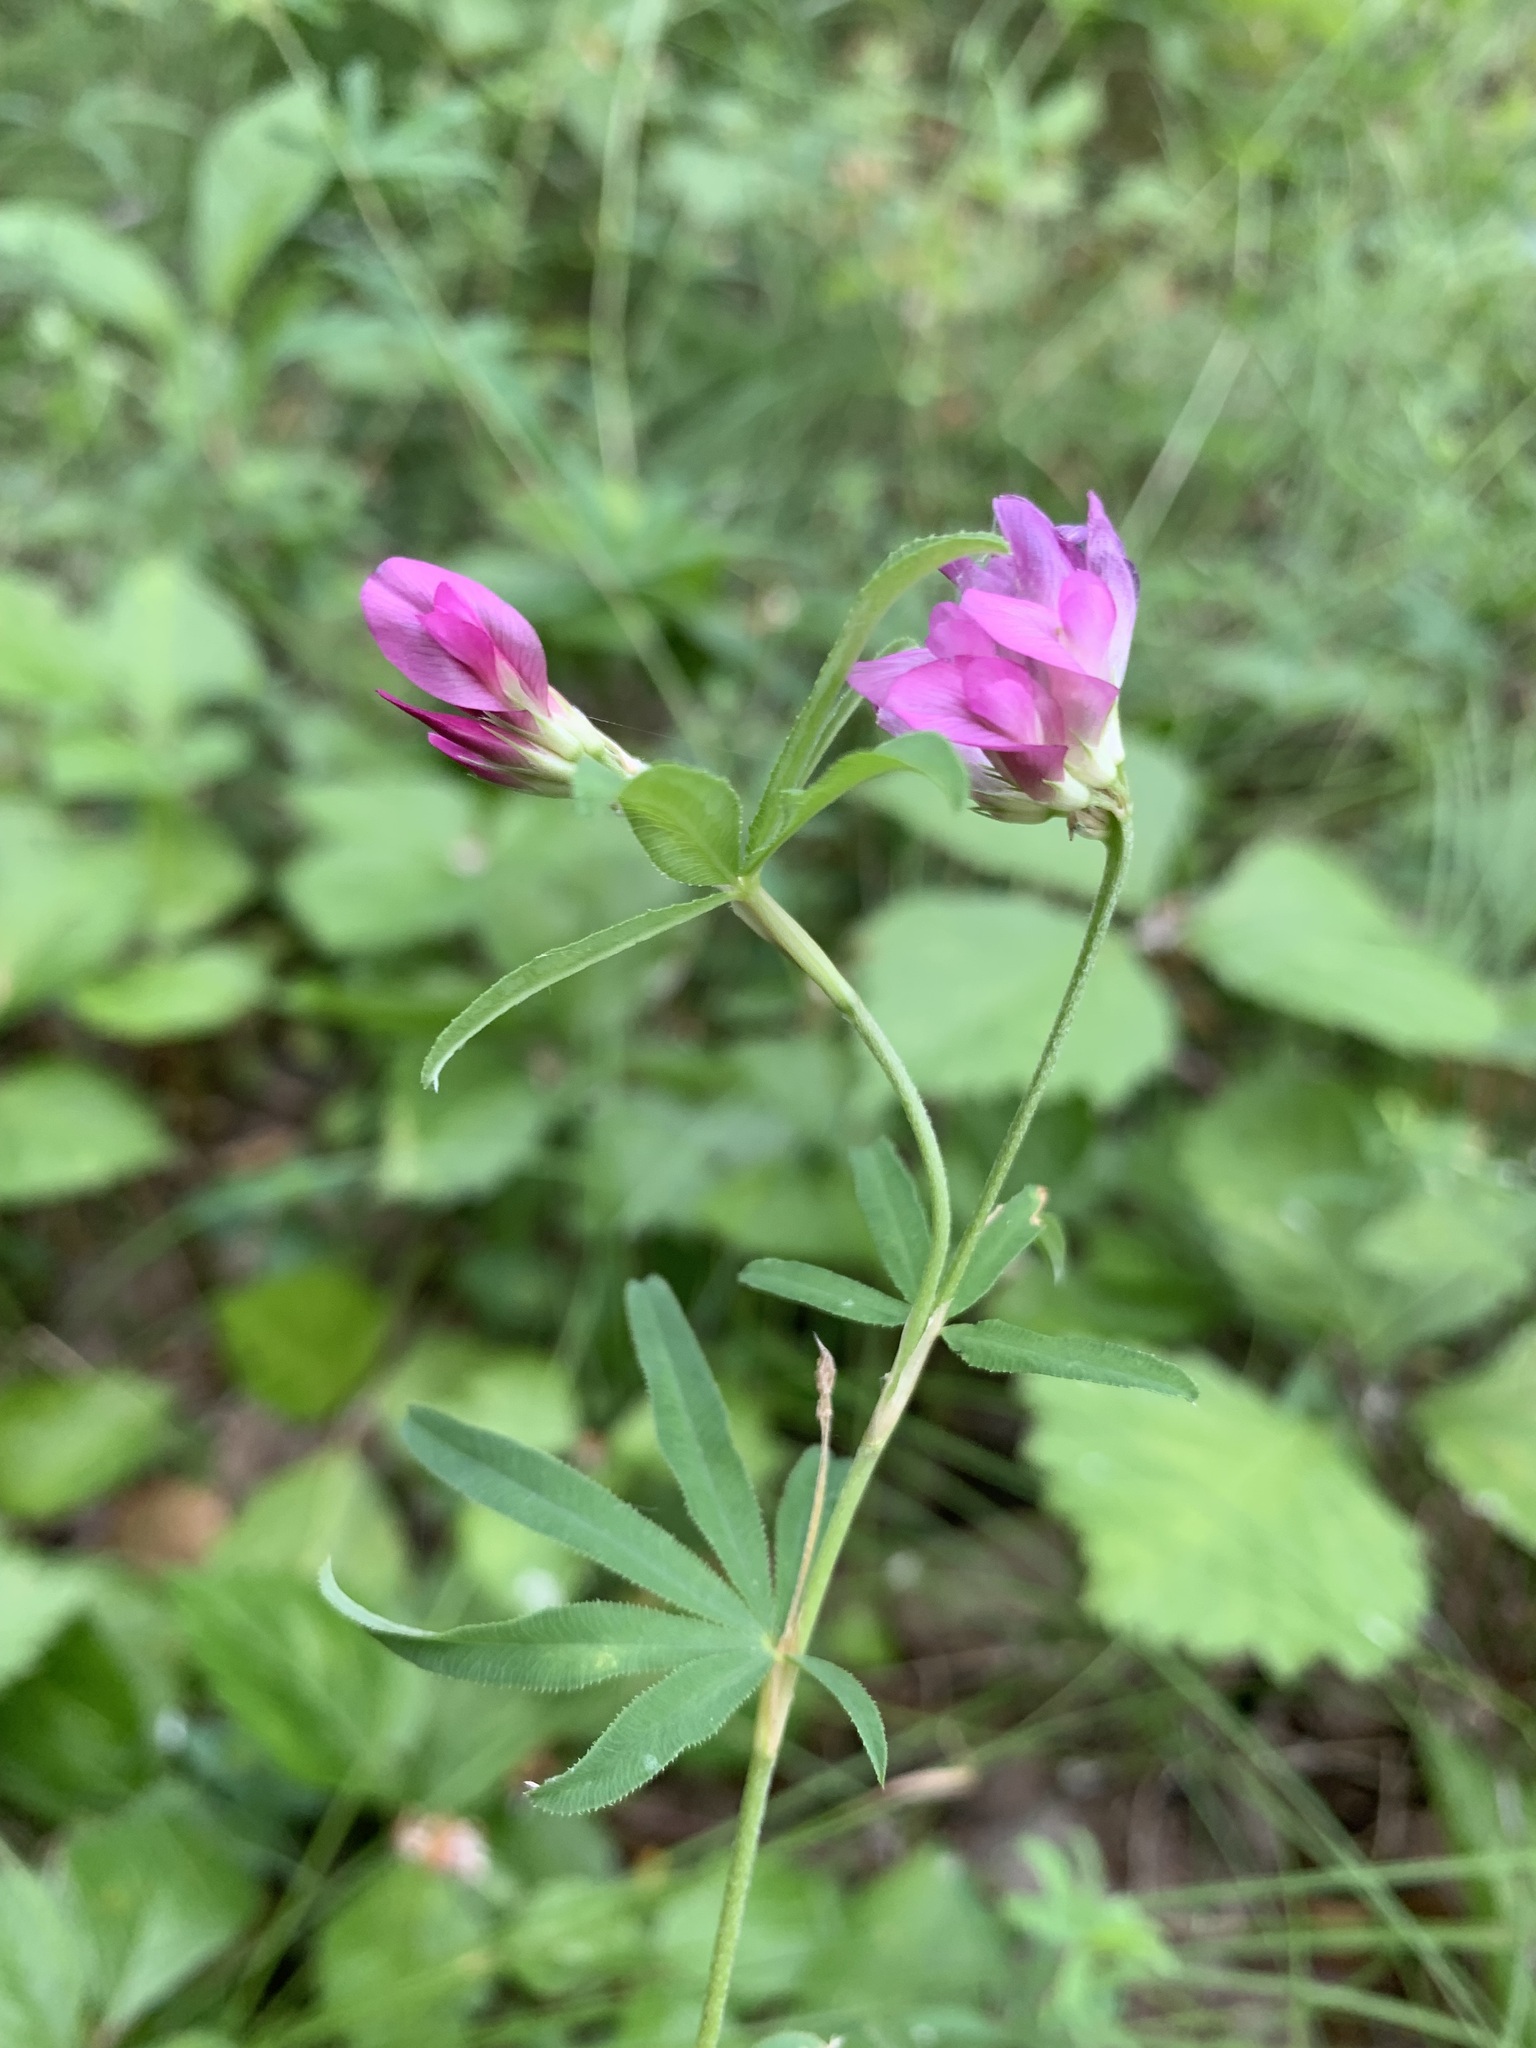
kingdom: Plantae
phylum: Tracheophyta
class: Magnoliopsida
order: Fabales
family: Fabaceae
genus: Trifolium
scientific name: Trifolium lupinaster
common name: Lupine clover
